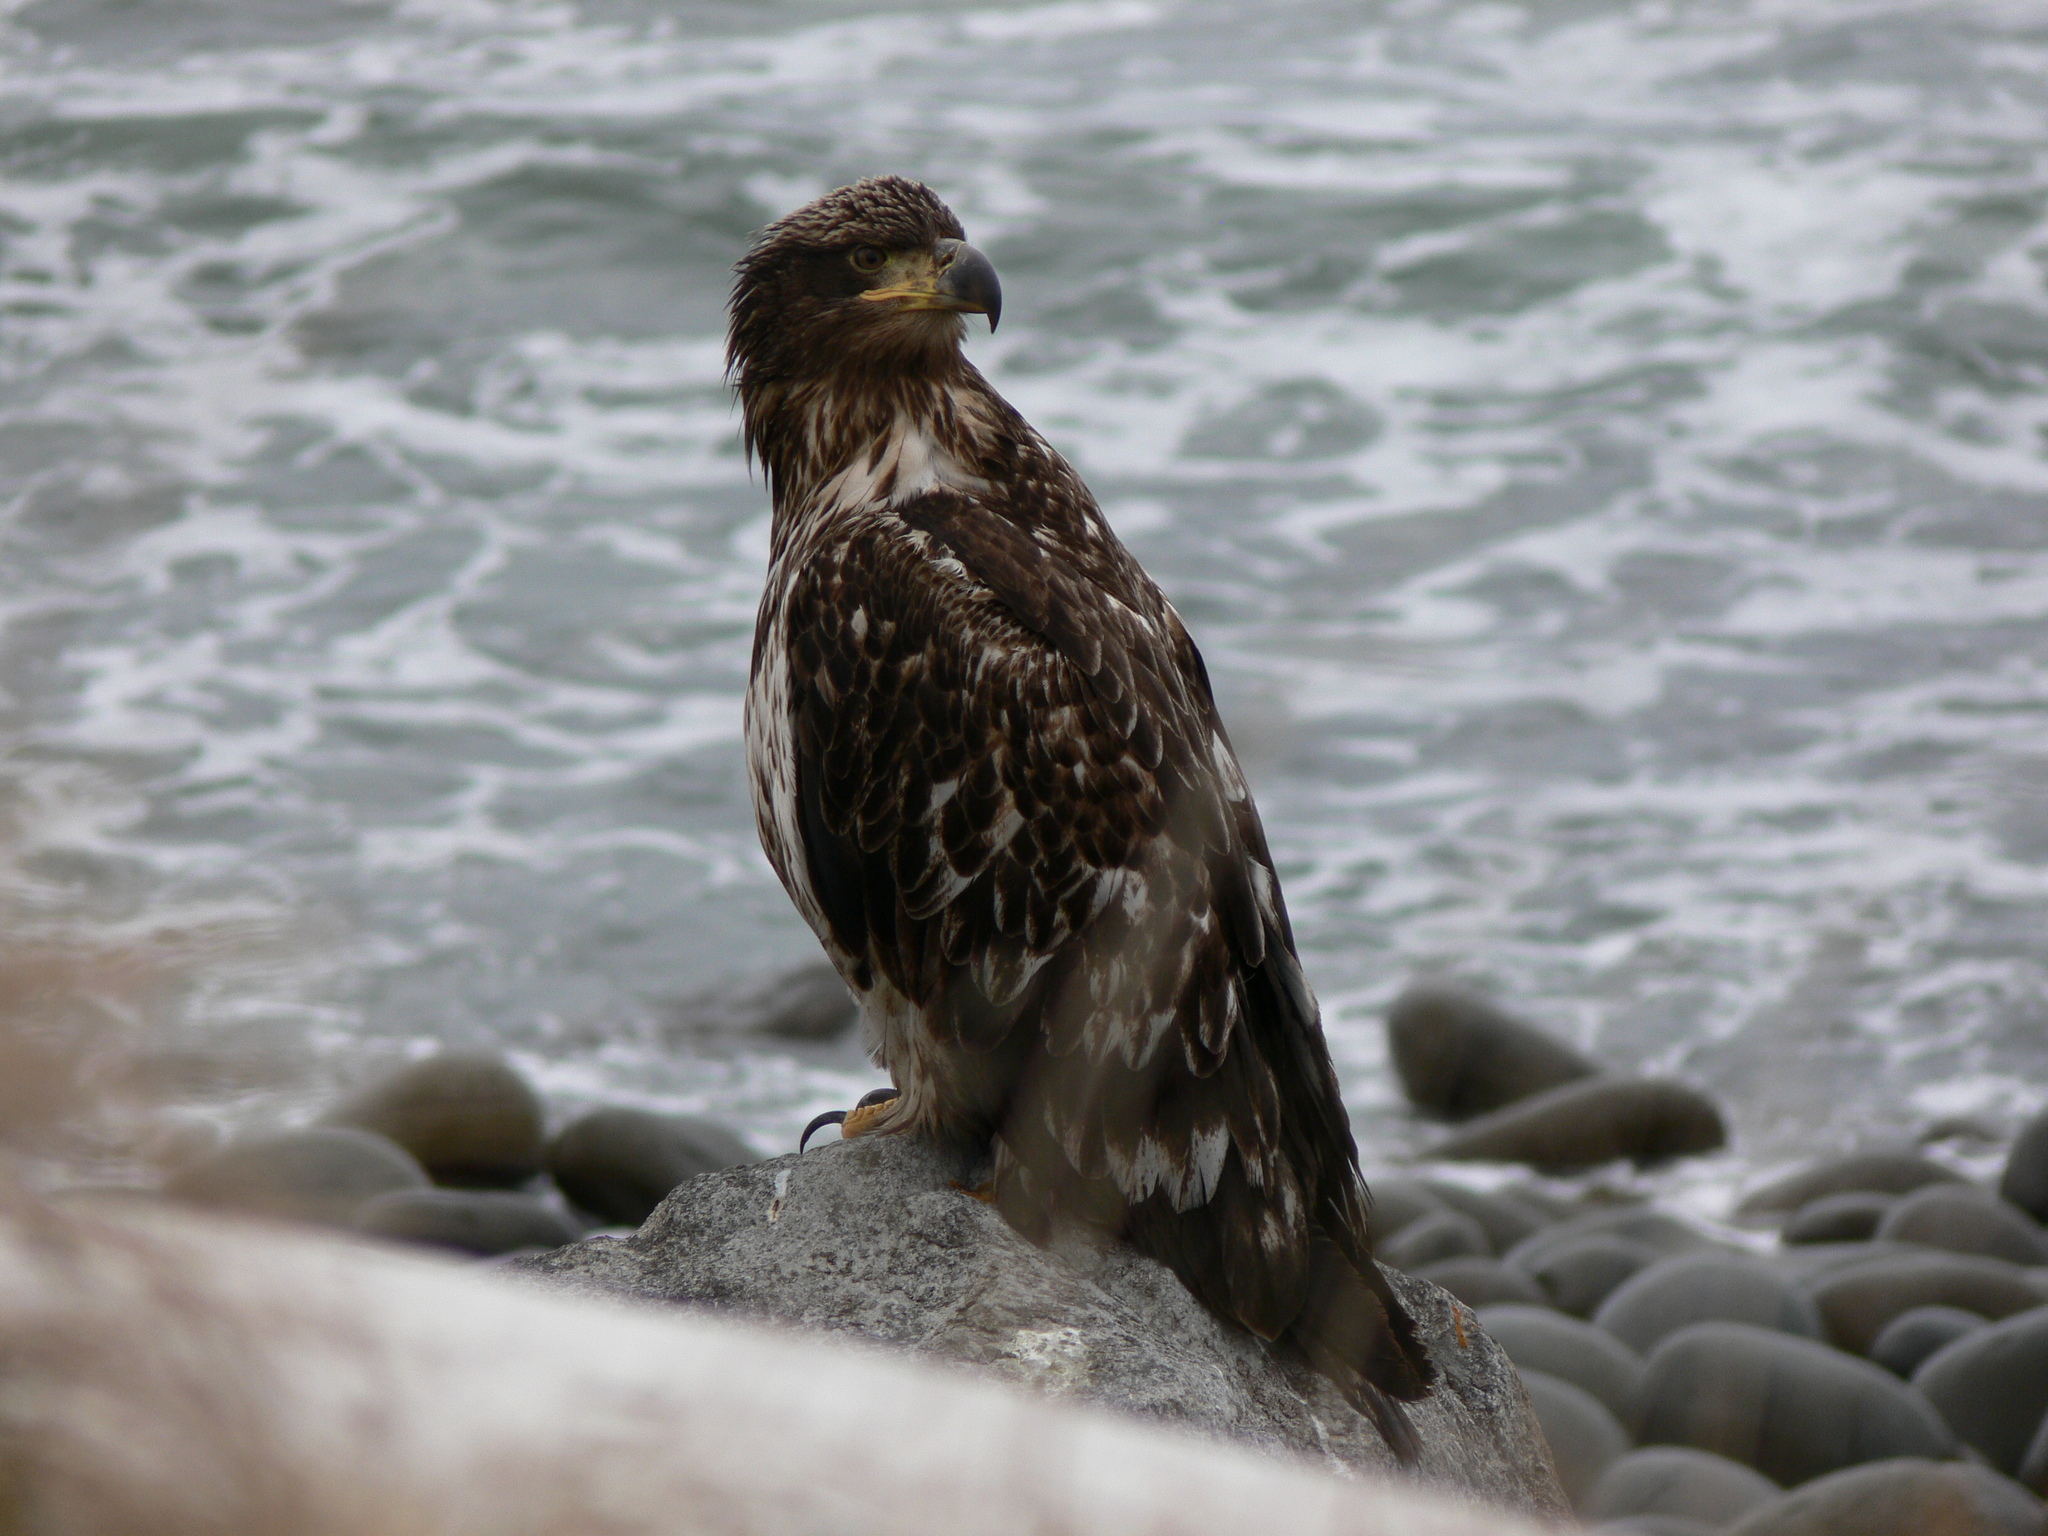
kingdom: Animalia
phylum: Chordata
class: Aves
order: Accipitriformes
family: Accipitridae
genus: Haliaeetus
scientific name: Haliaeetus leucocephalus
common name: Bald eagle
